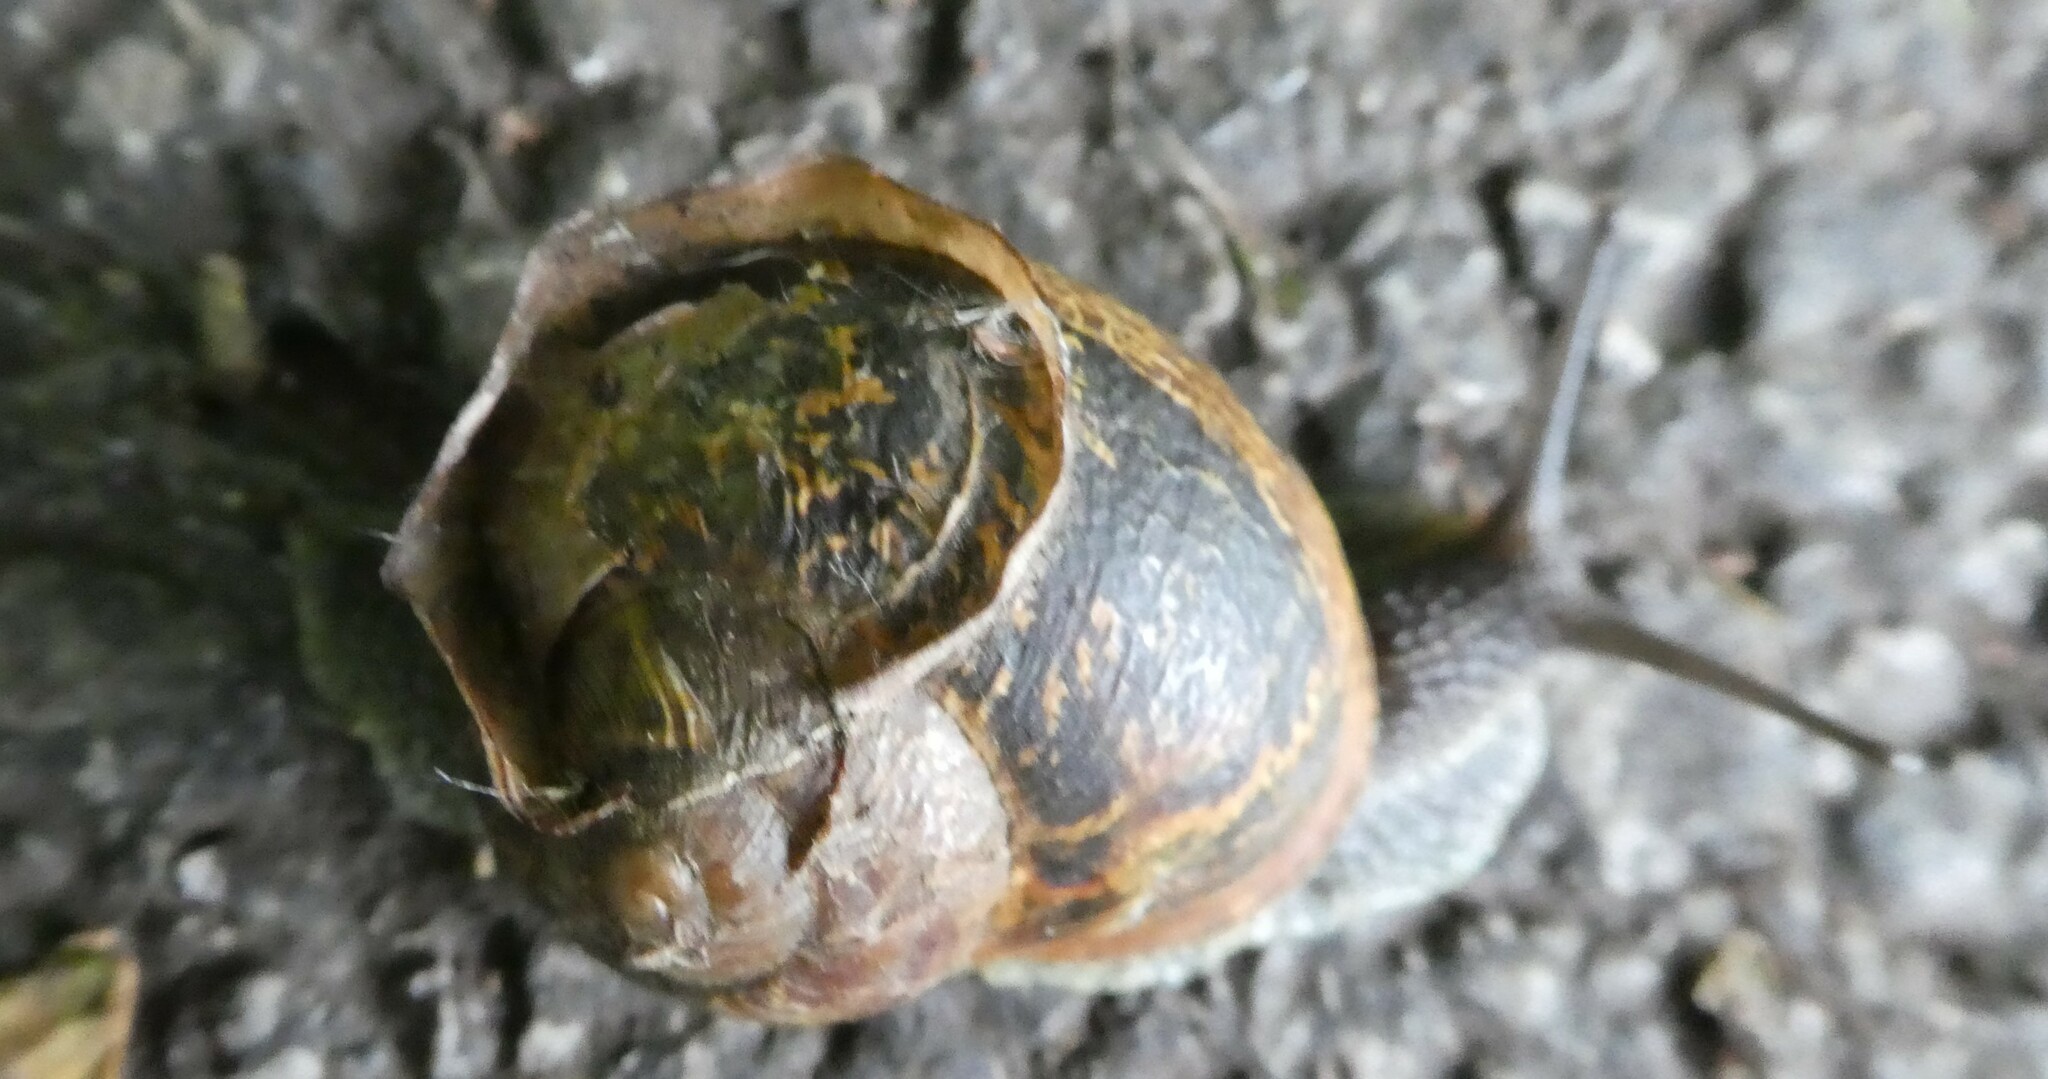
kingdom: Animalia
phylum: Mollusca
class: Gastropoda
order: Stylommatophora
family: Helicidae
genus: Cornu
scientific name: Cornu aspersum
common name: Brown garden snail
